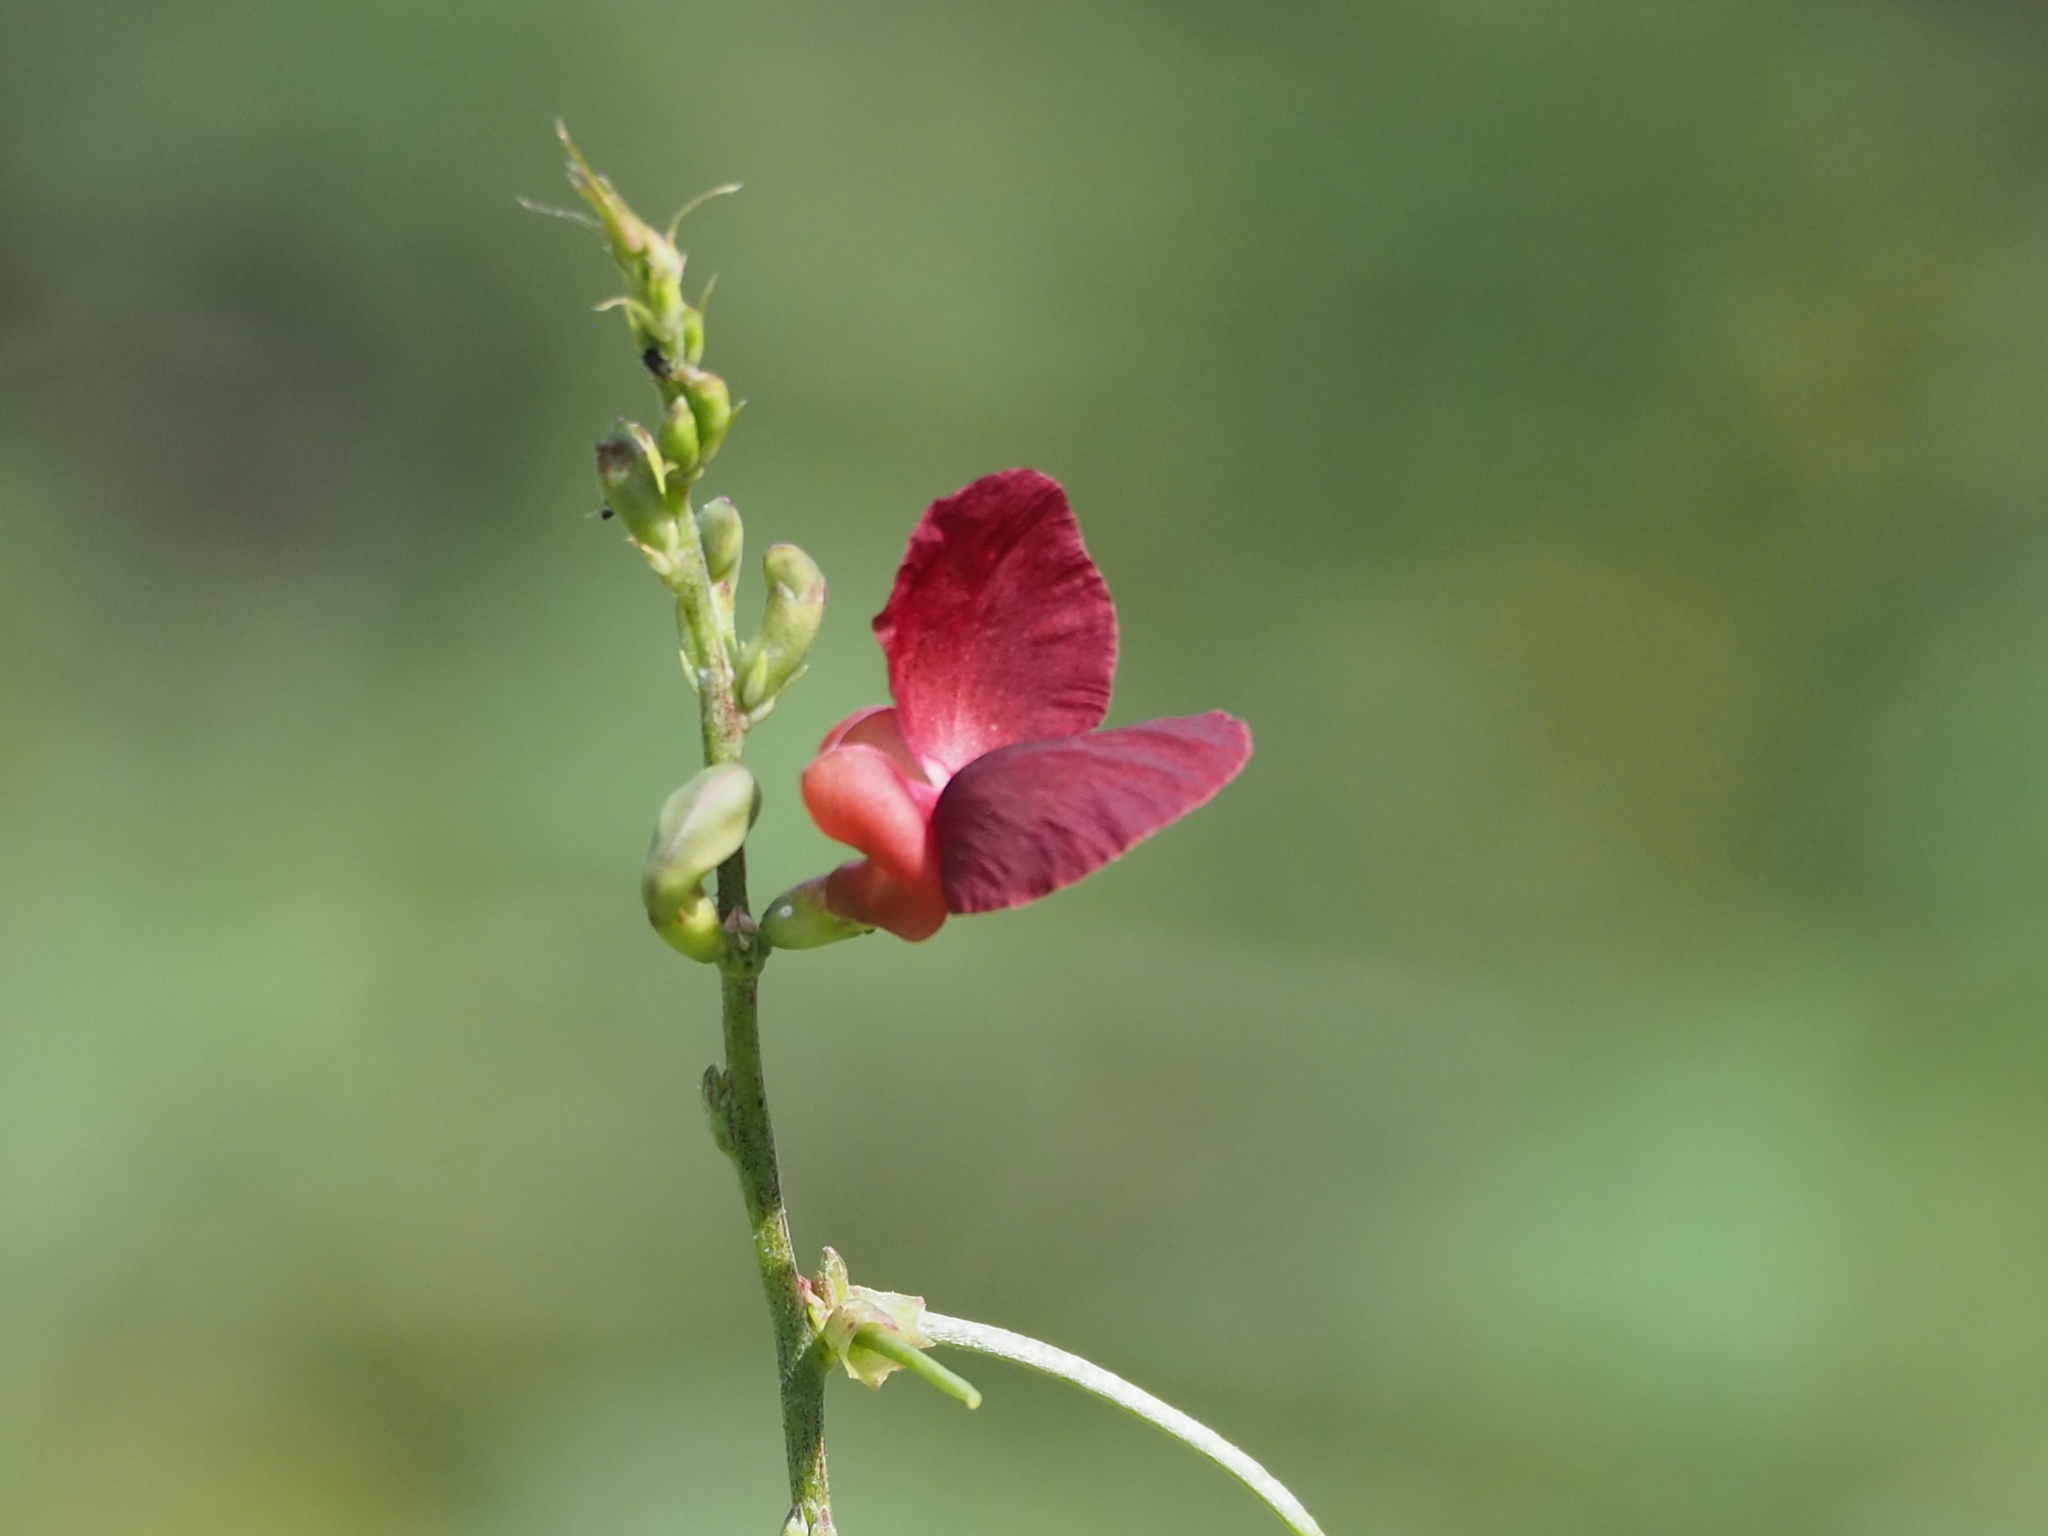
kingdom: Plantae
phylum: Tracheophyta
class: Magnoliopsida
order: Fabales
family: Fabaceae
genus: Macroptilium
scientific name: Macroptilium lathyroides
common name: Wild bushbean
